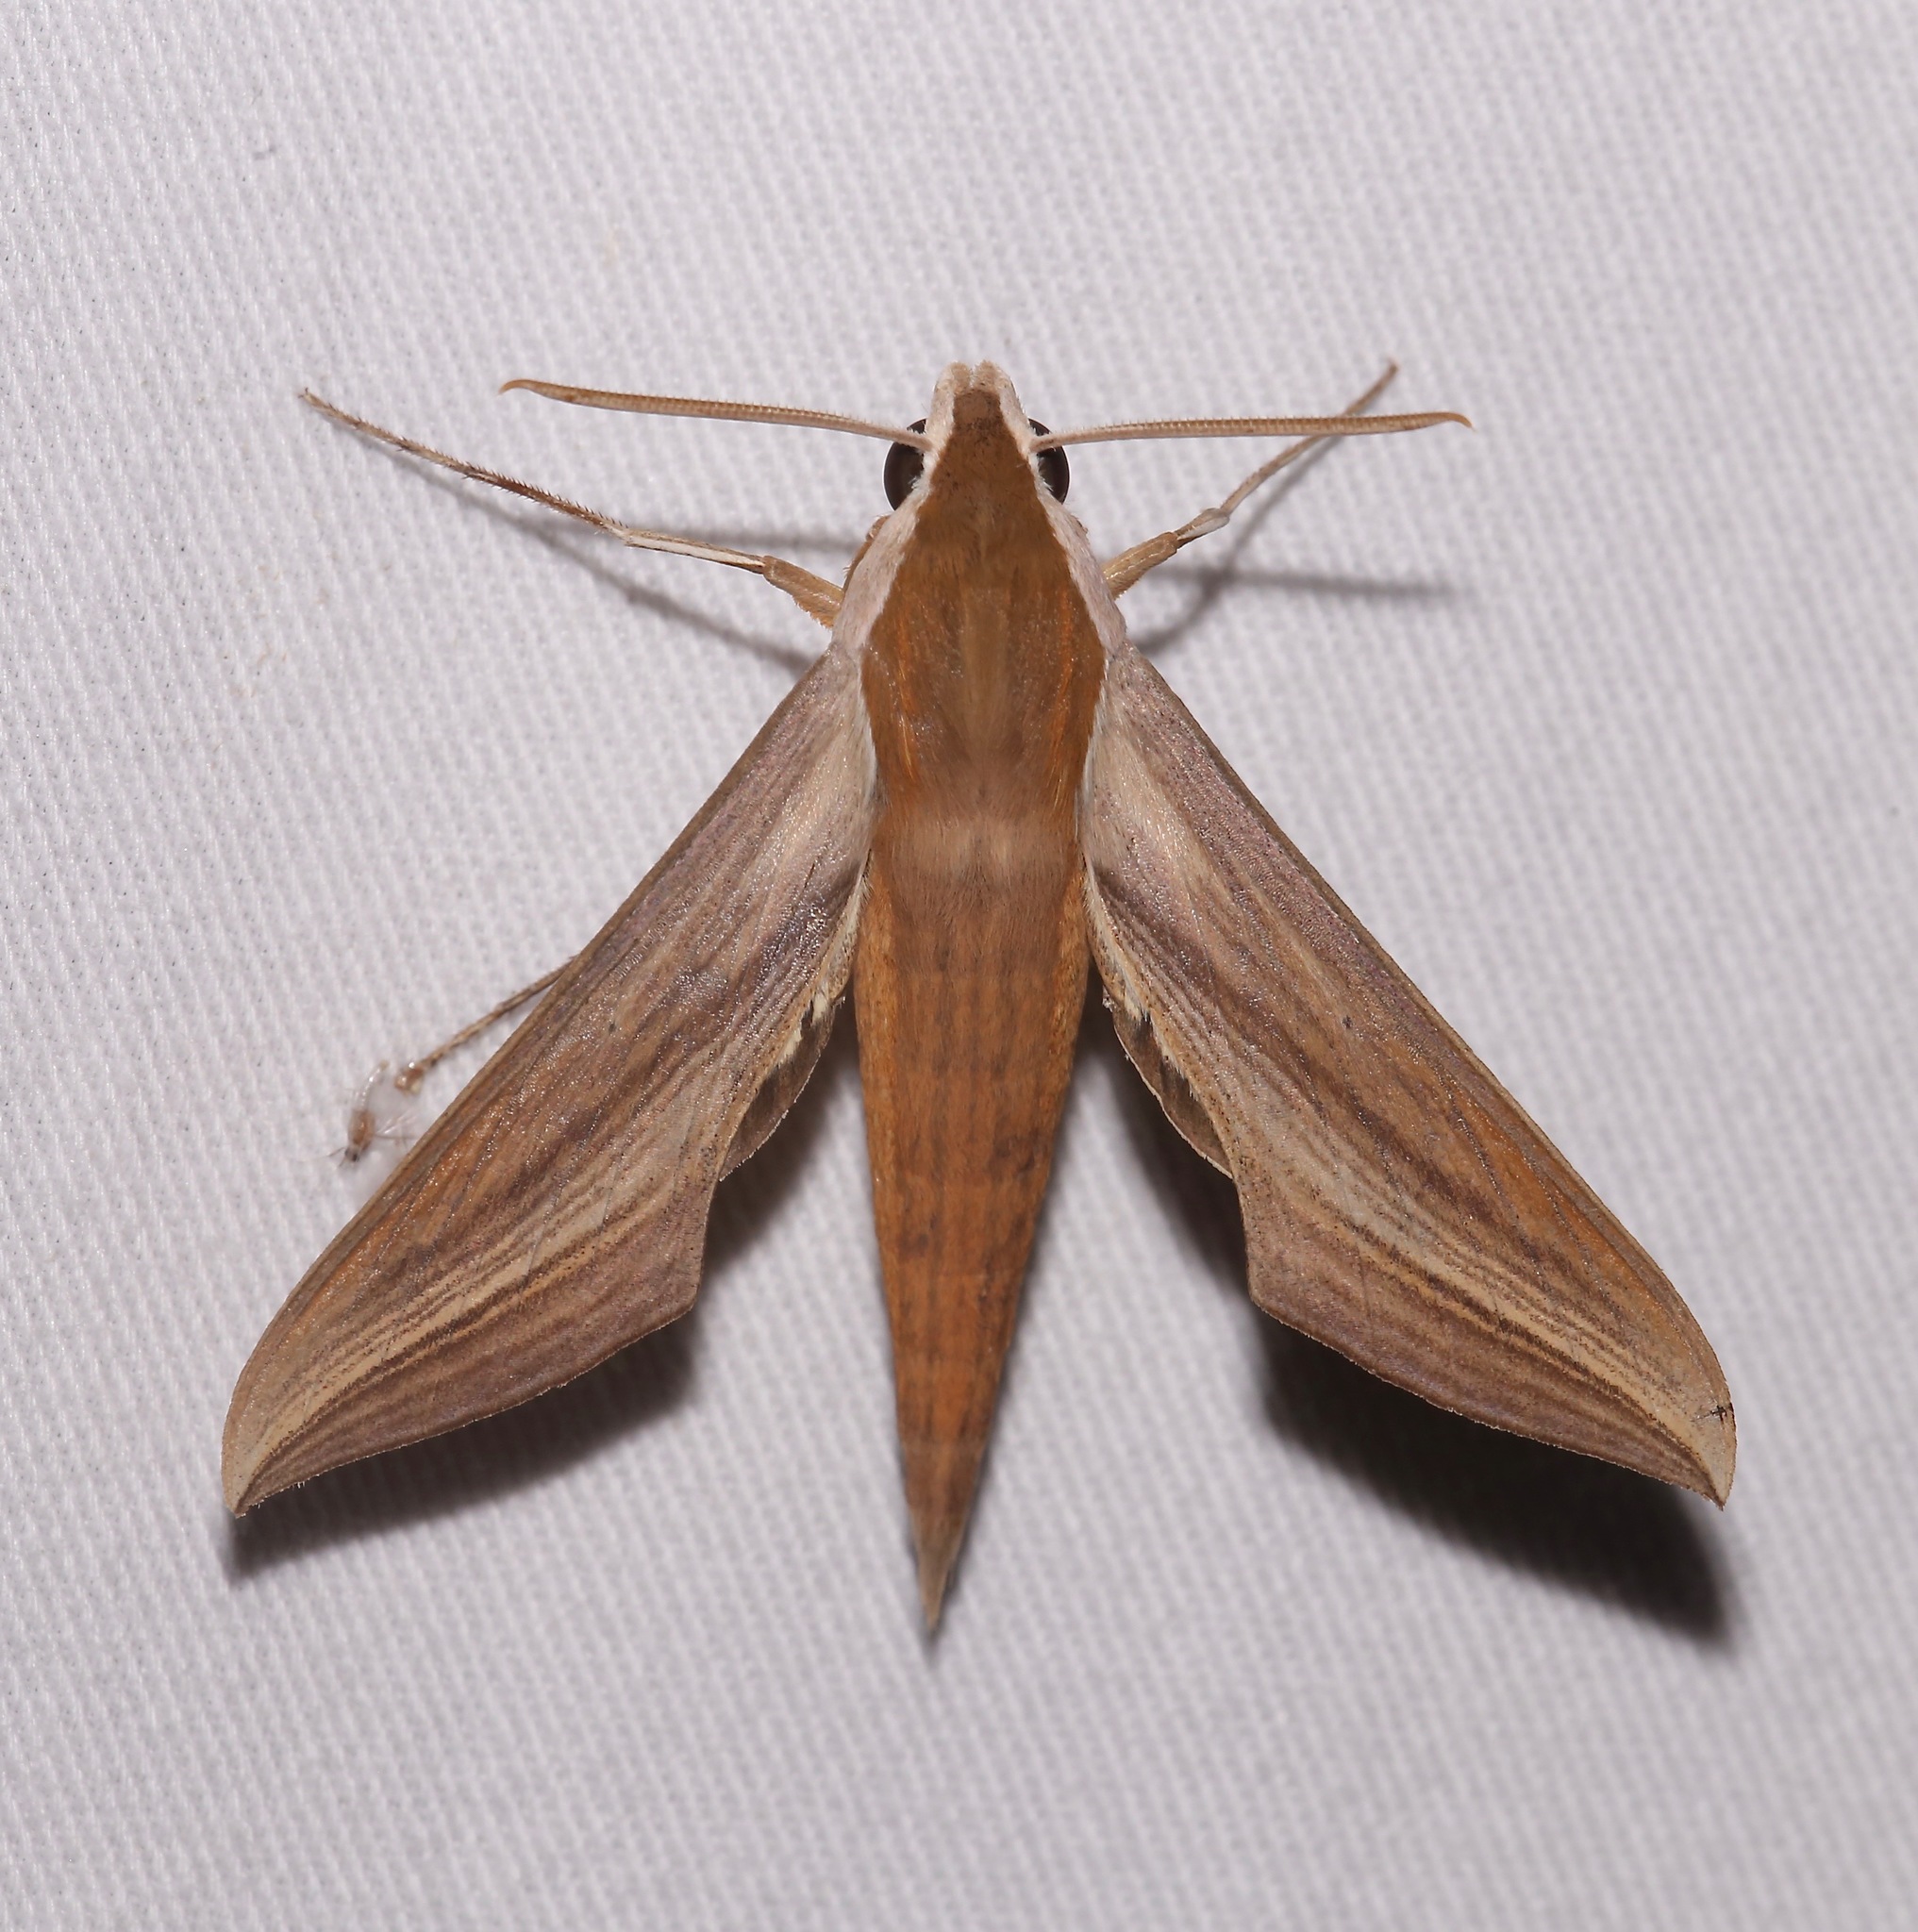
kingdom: Animalia
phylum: Arthropoda
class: Insecta
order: Lepidoptera
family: Sphingidae
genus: Xylophanes
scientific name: Xylophanes tersa
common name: Tersa sphinx
